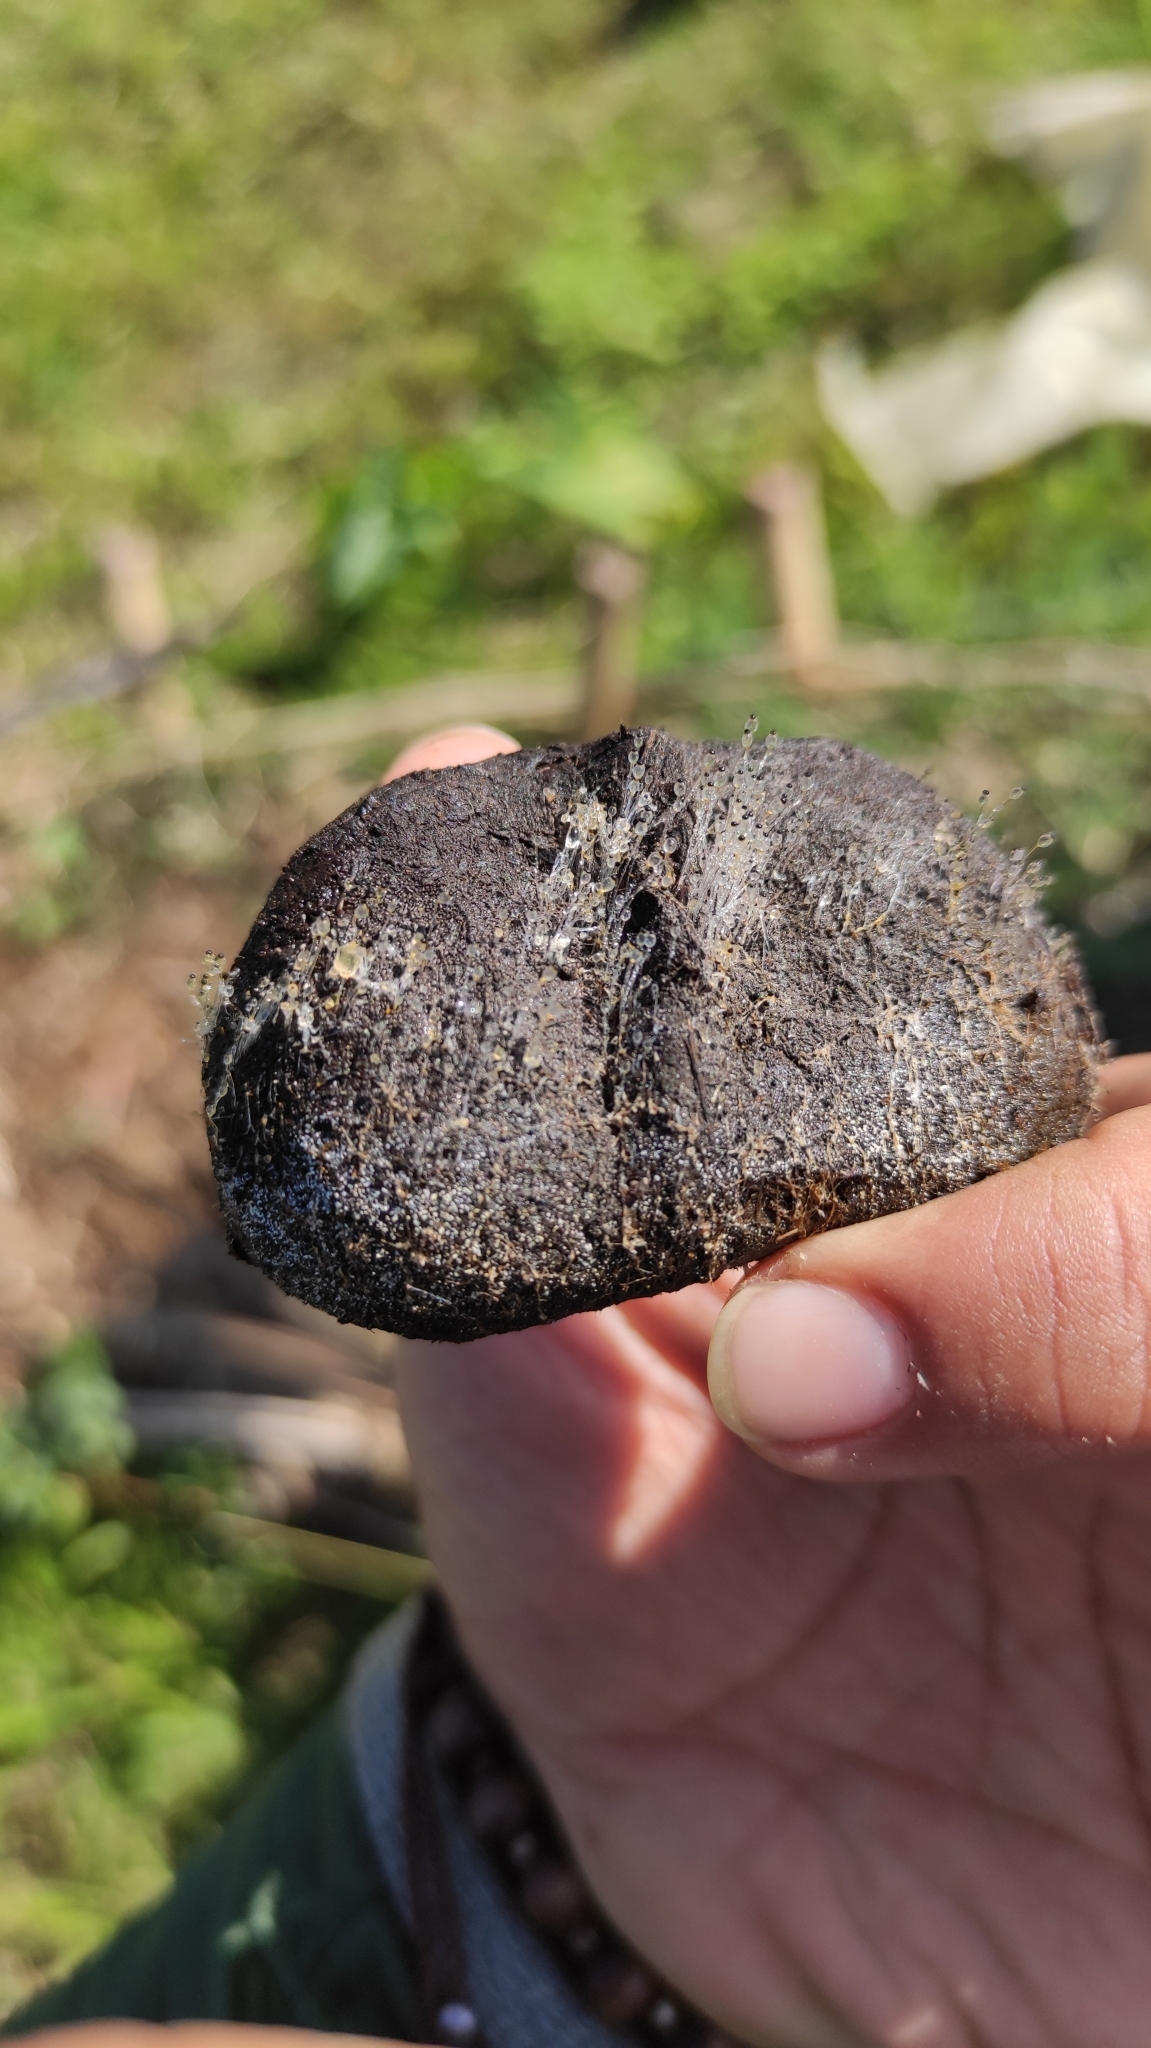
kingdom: Fungi
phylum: Mucoromycota
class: Mucoromycetes
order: Mucorales
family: Pilobolaceae
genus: Pilobolus
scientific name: Pilobolus
